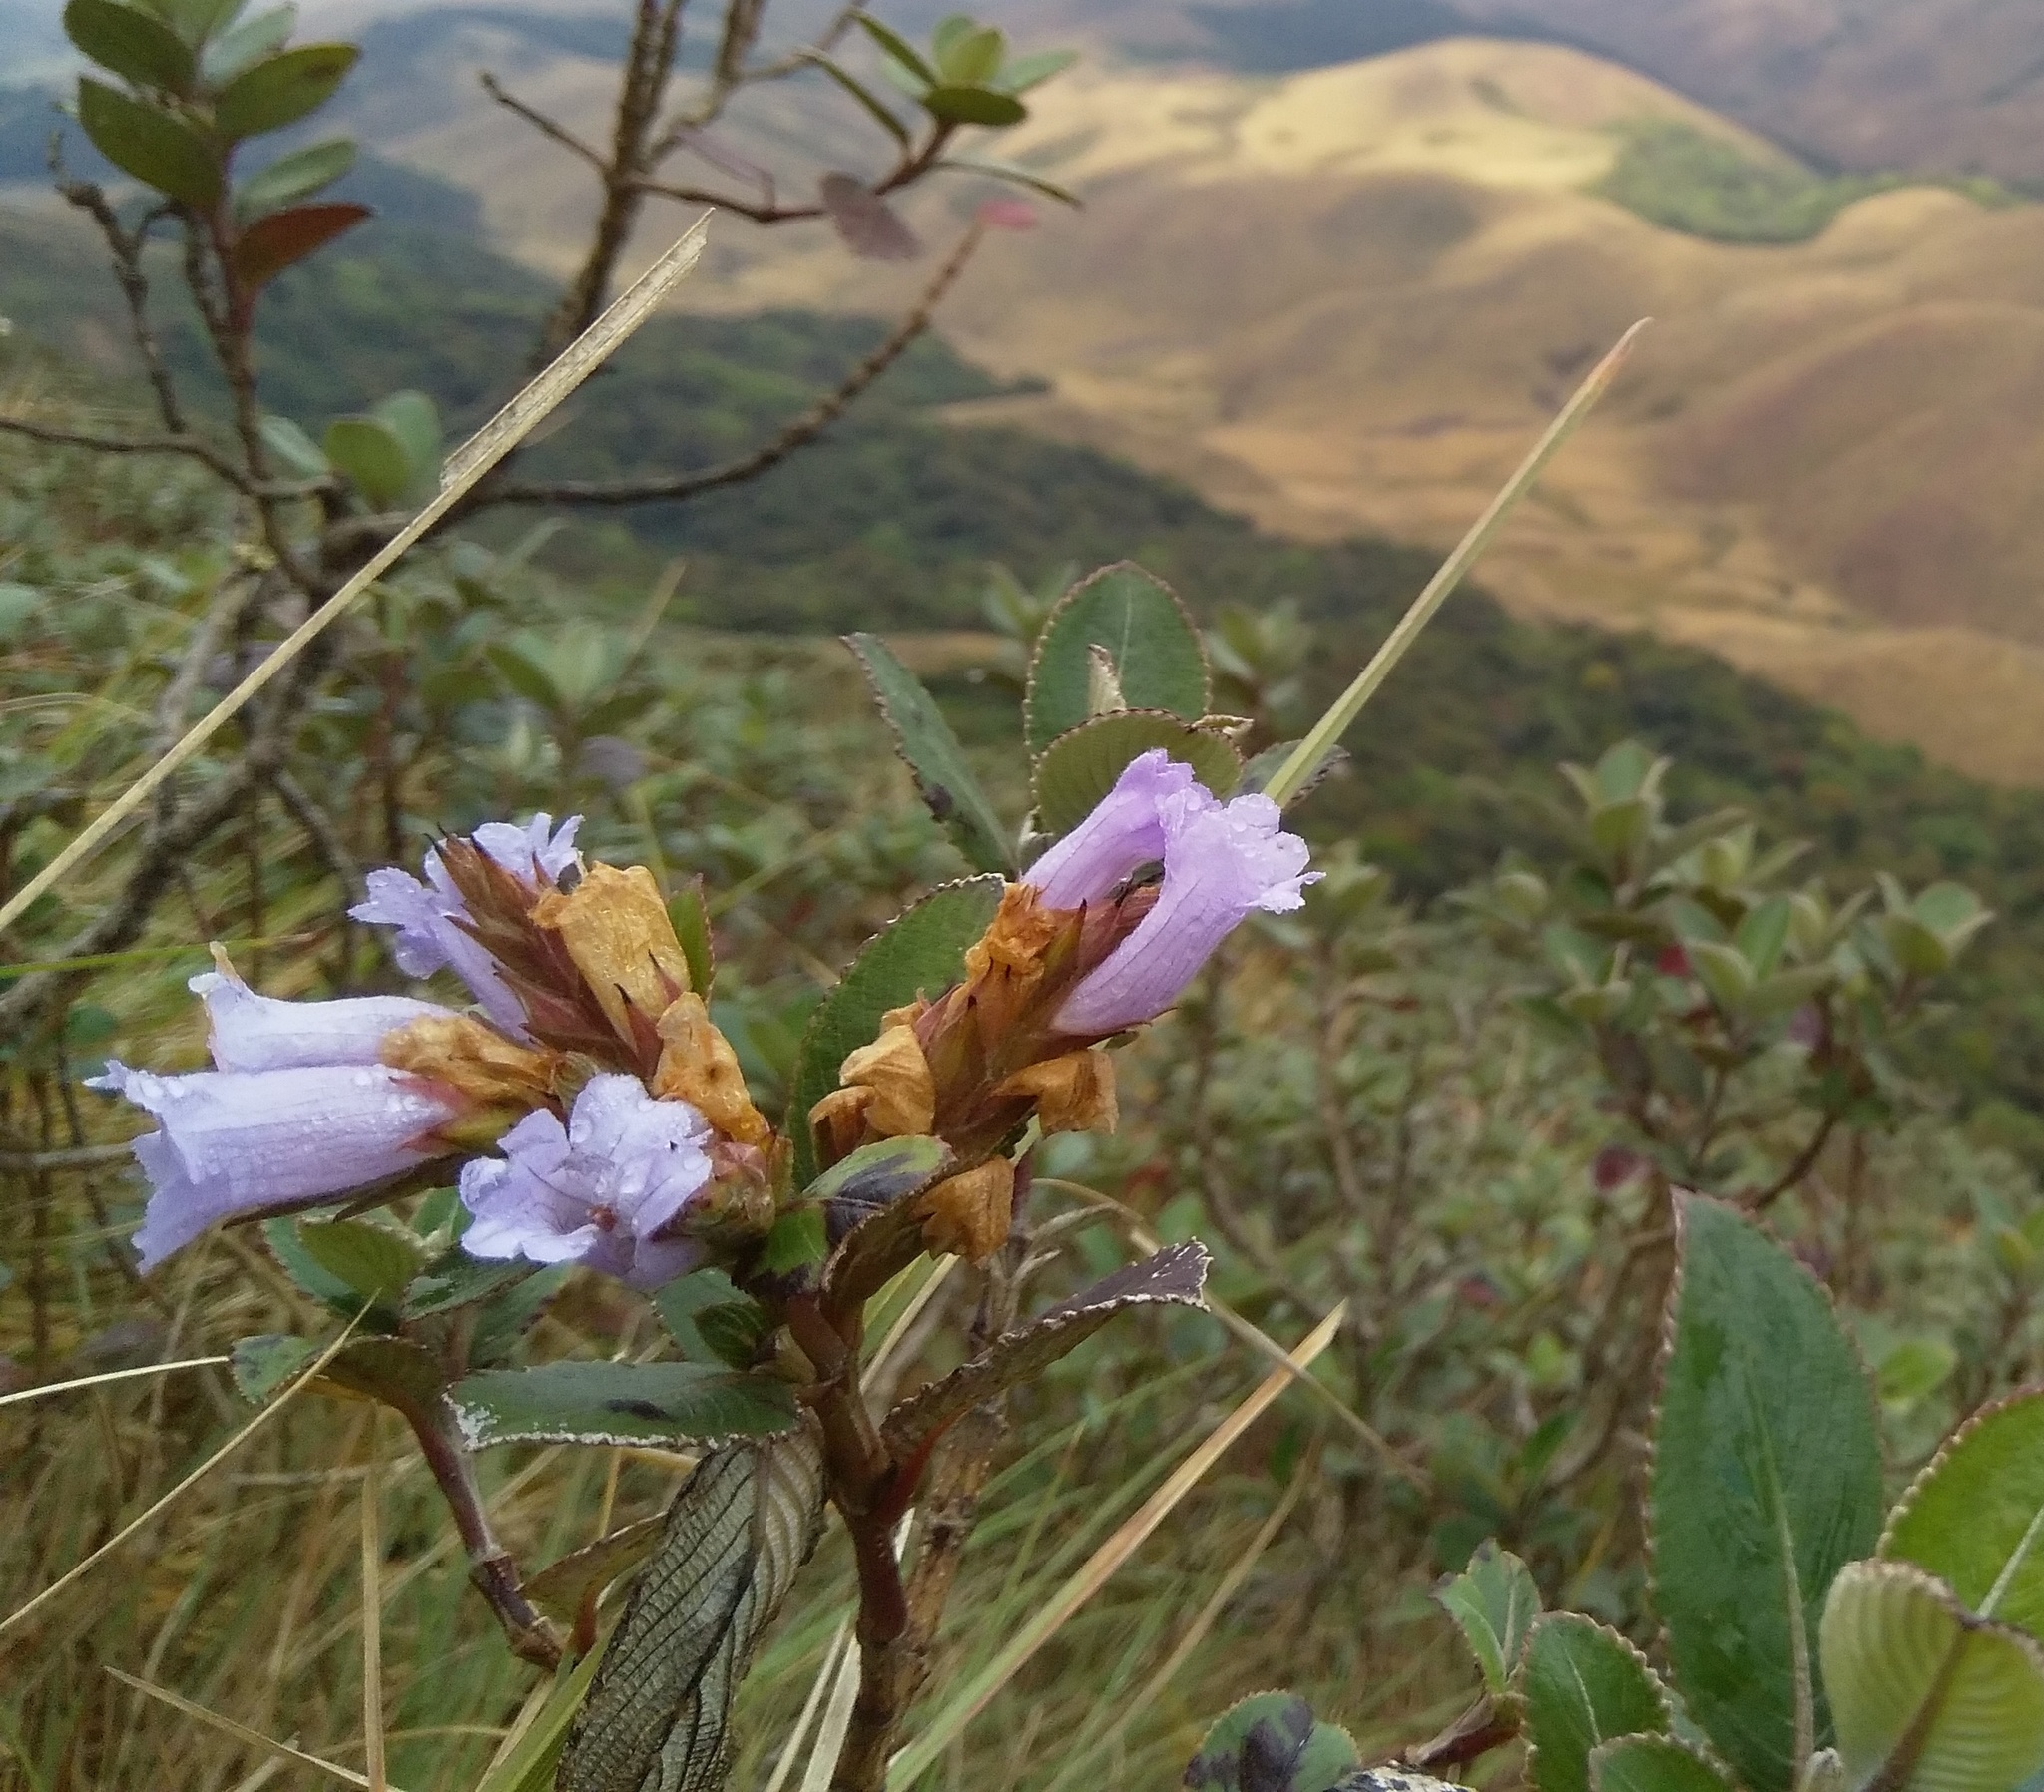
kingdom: Plantae
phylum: Tracheophyta
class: Magnoliopsida
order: Lamiales
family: Acanthaceae
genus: Strobilanthes
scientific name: Strobilanthes kunthiana
